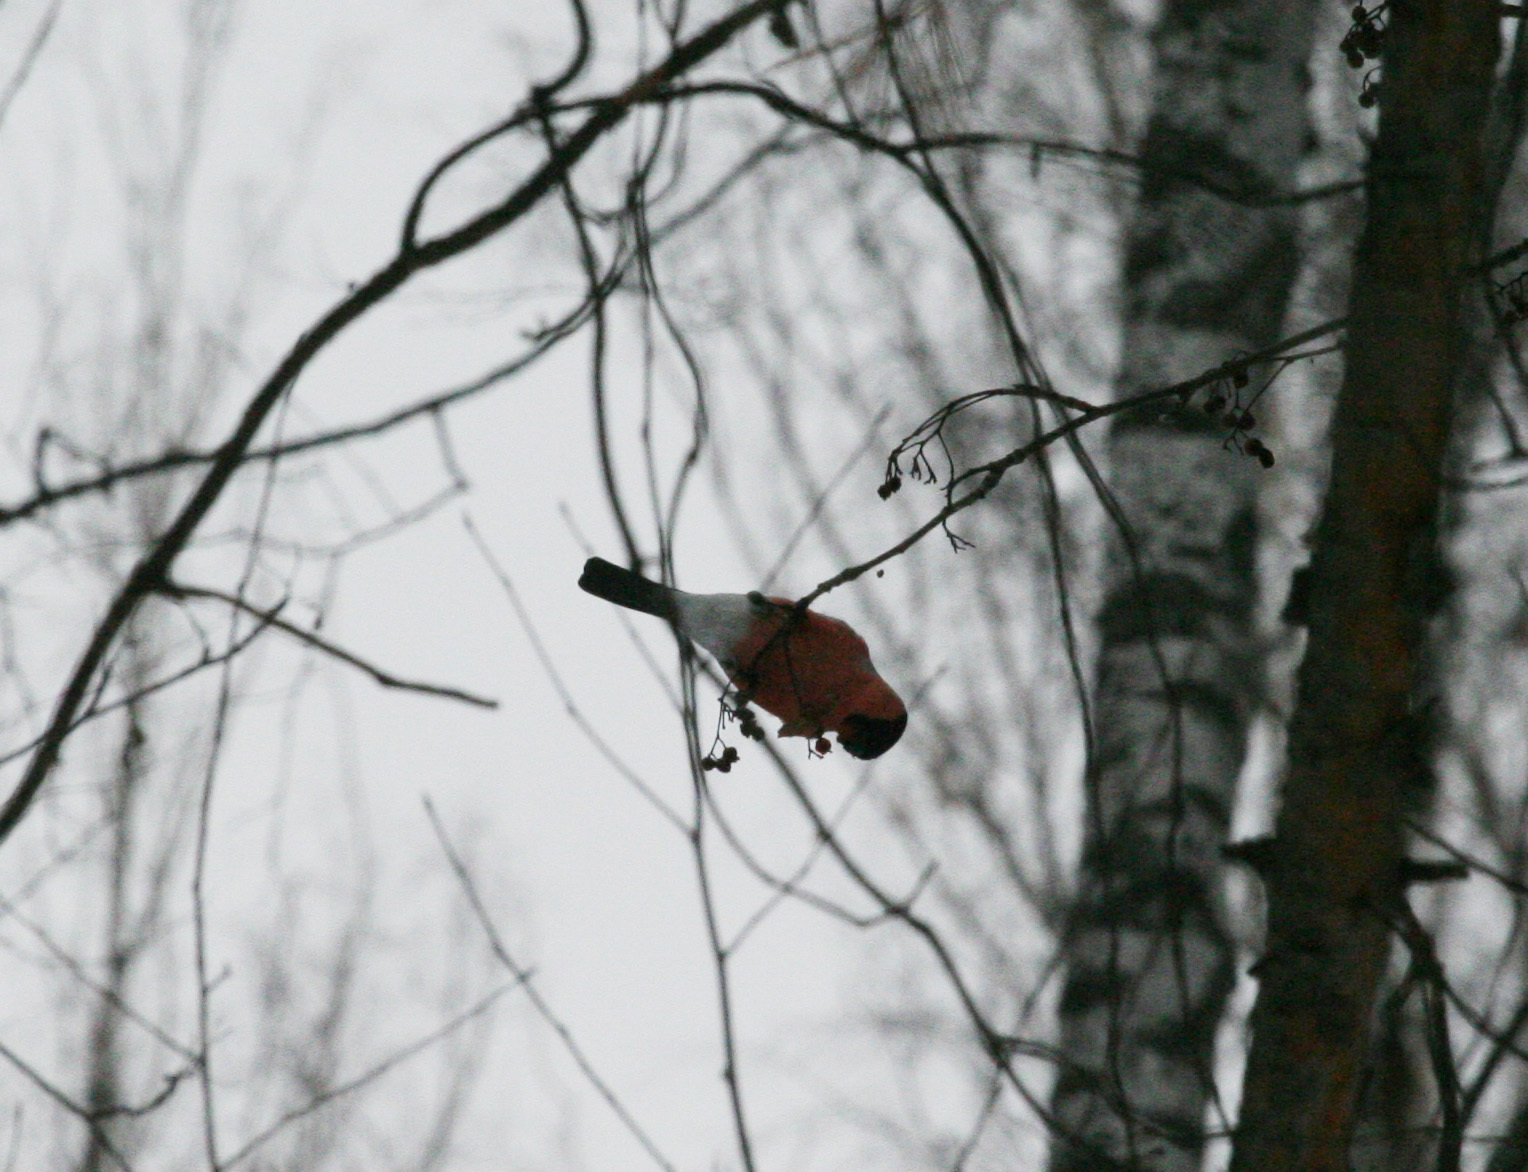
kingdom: Animalia
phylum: Chordata
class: Aves
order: Passeriformes
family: Fringillidae
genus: Pyrrhula
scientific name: Pyrrhula pyrrhula
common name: Eurasian bullfinch
